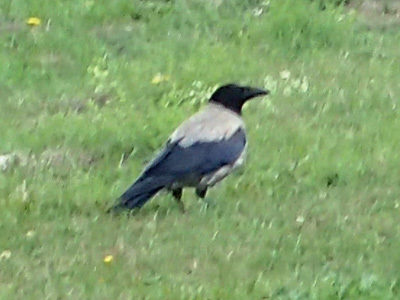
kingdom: Animalia
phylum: Chordata
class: Aves
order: Passeriformes
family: Corvidae
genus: Corvus
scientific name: Corvus cornix
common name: Hooded crow
